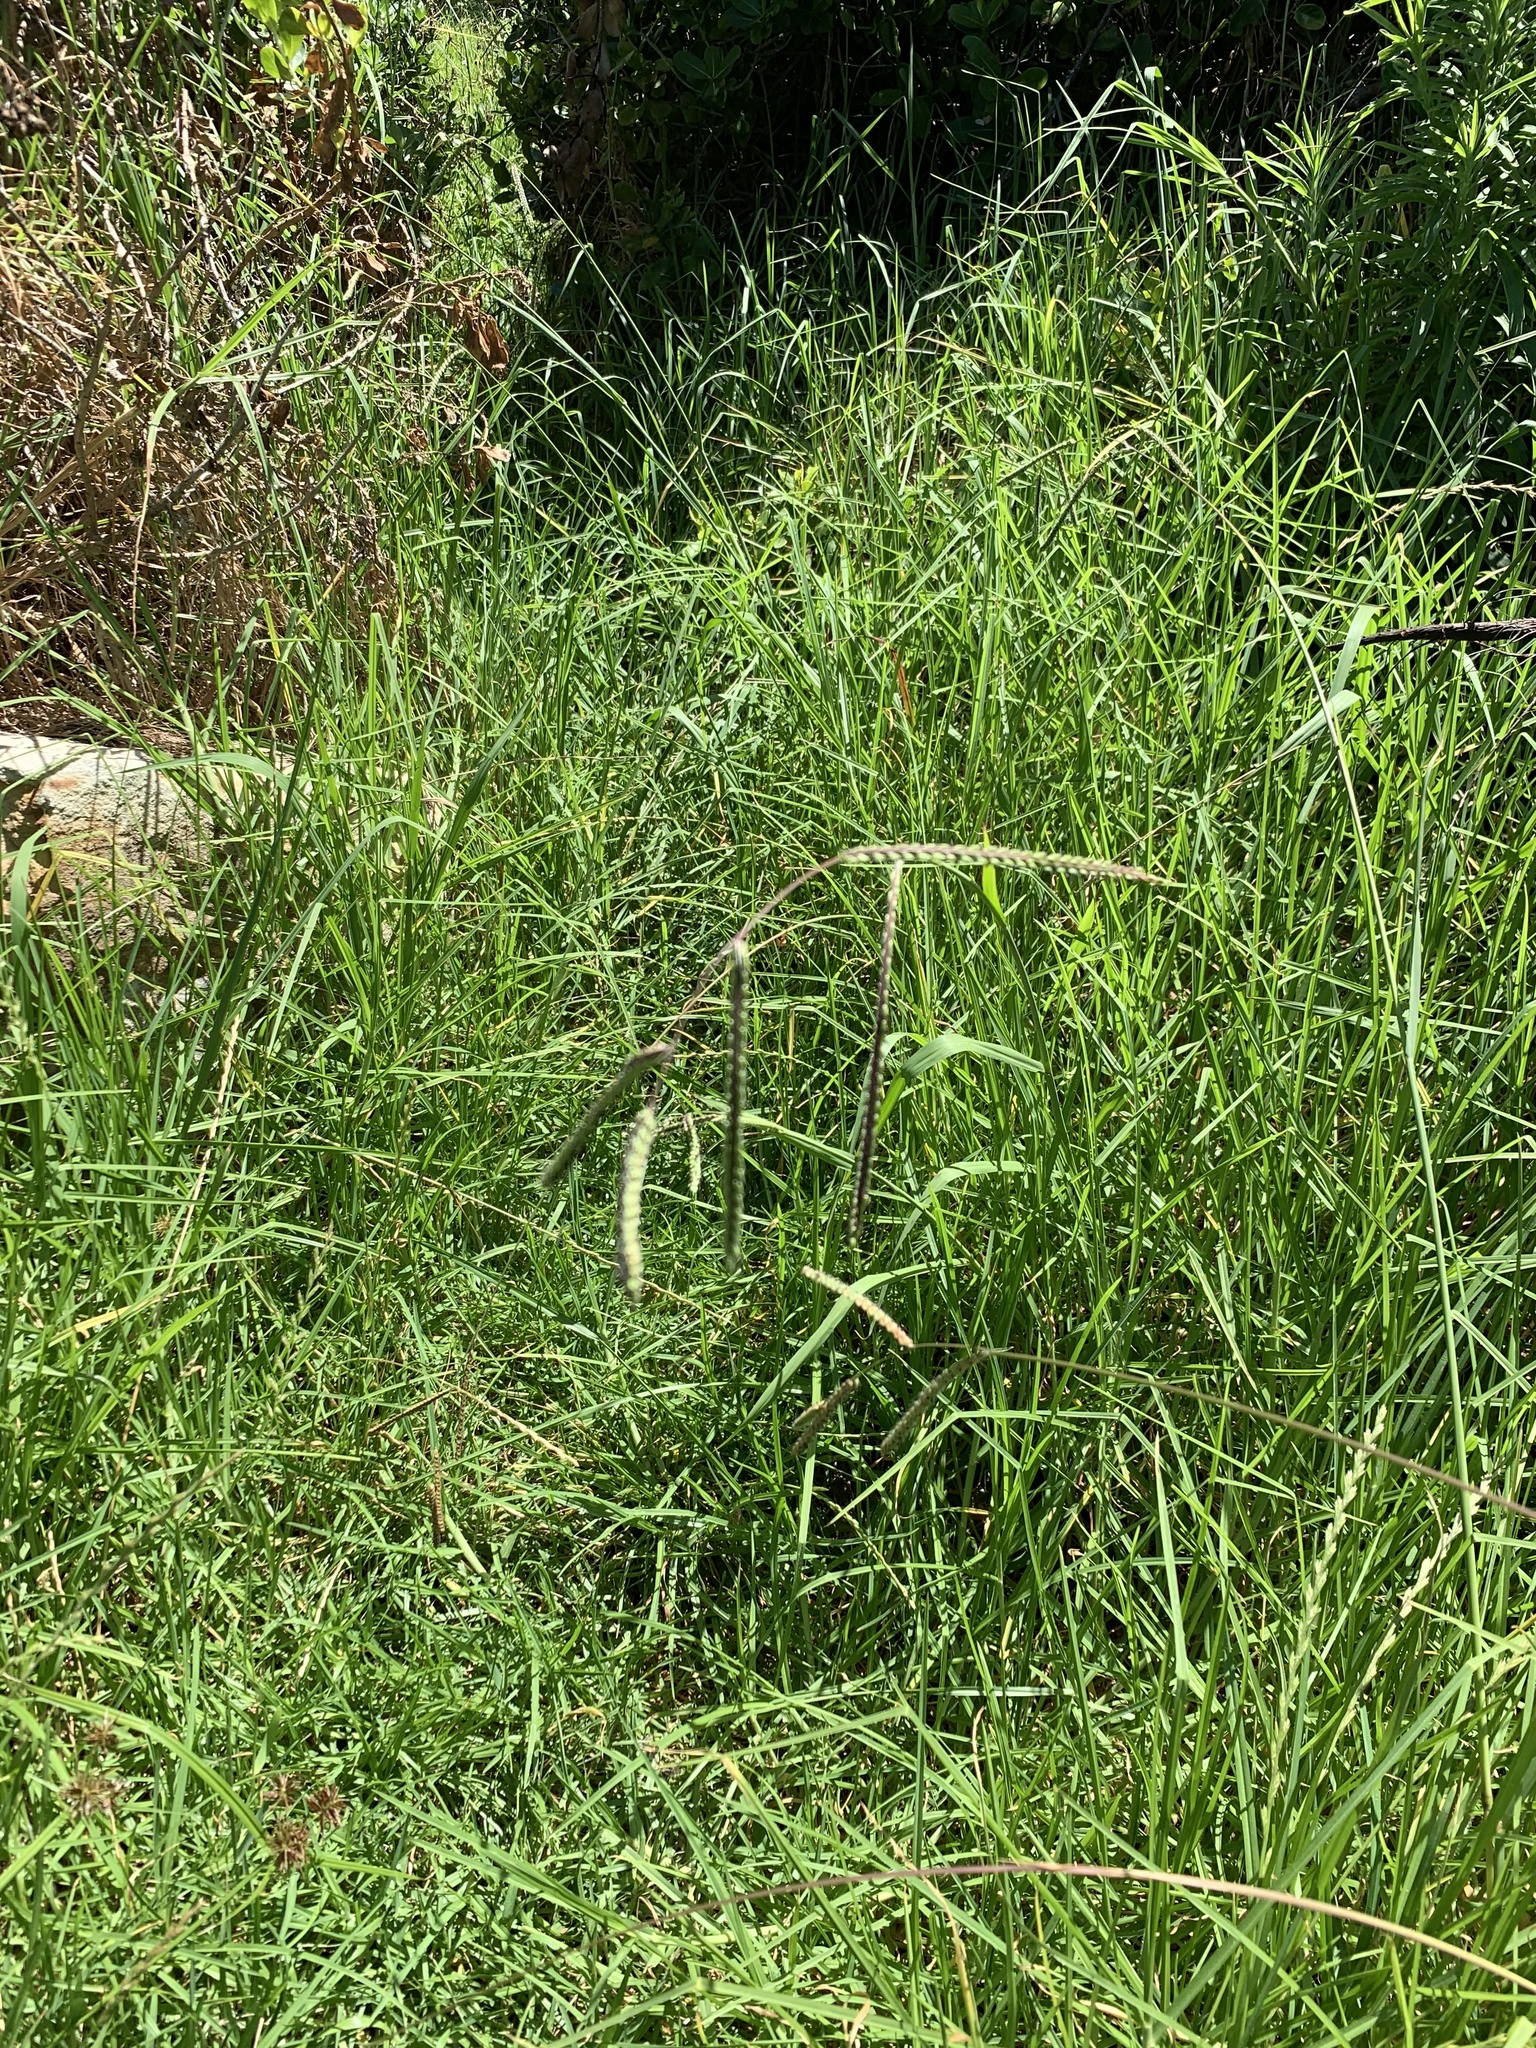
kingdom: Plantae
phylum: Tracheophyta
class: Liliopsida
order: Poales
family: Poaceae
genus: Paspalum
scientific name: Paspalum dilatatum
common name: Dallisgrass
